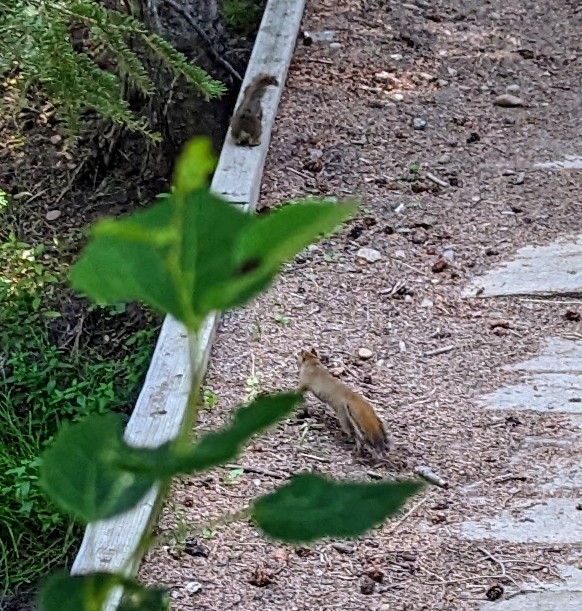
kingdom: Animalia
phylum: Chordata
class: Mammalia
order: Rodentia
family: Sciuridae
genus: Tamiasciurus
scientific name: Tamiasciurus hudsonicus
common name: Red squirrel
